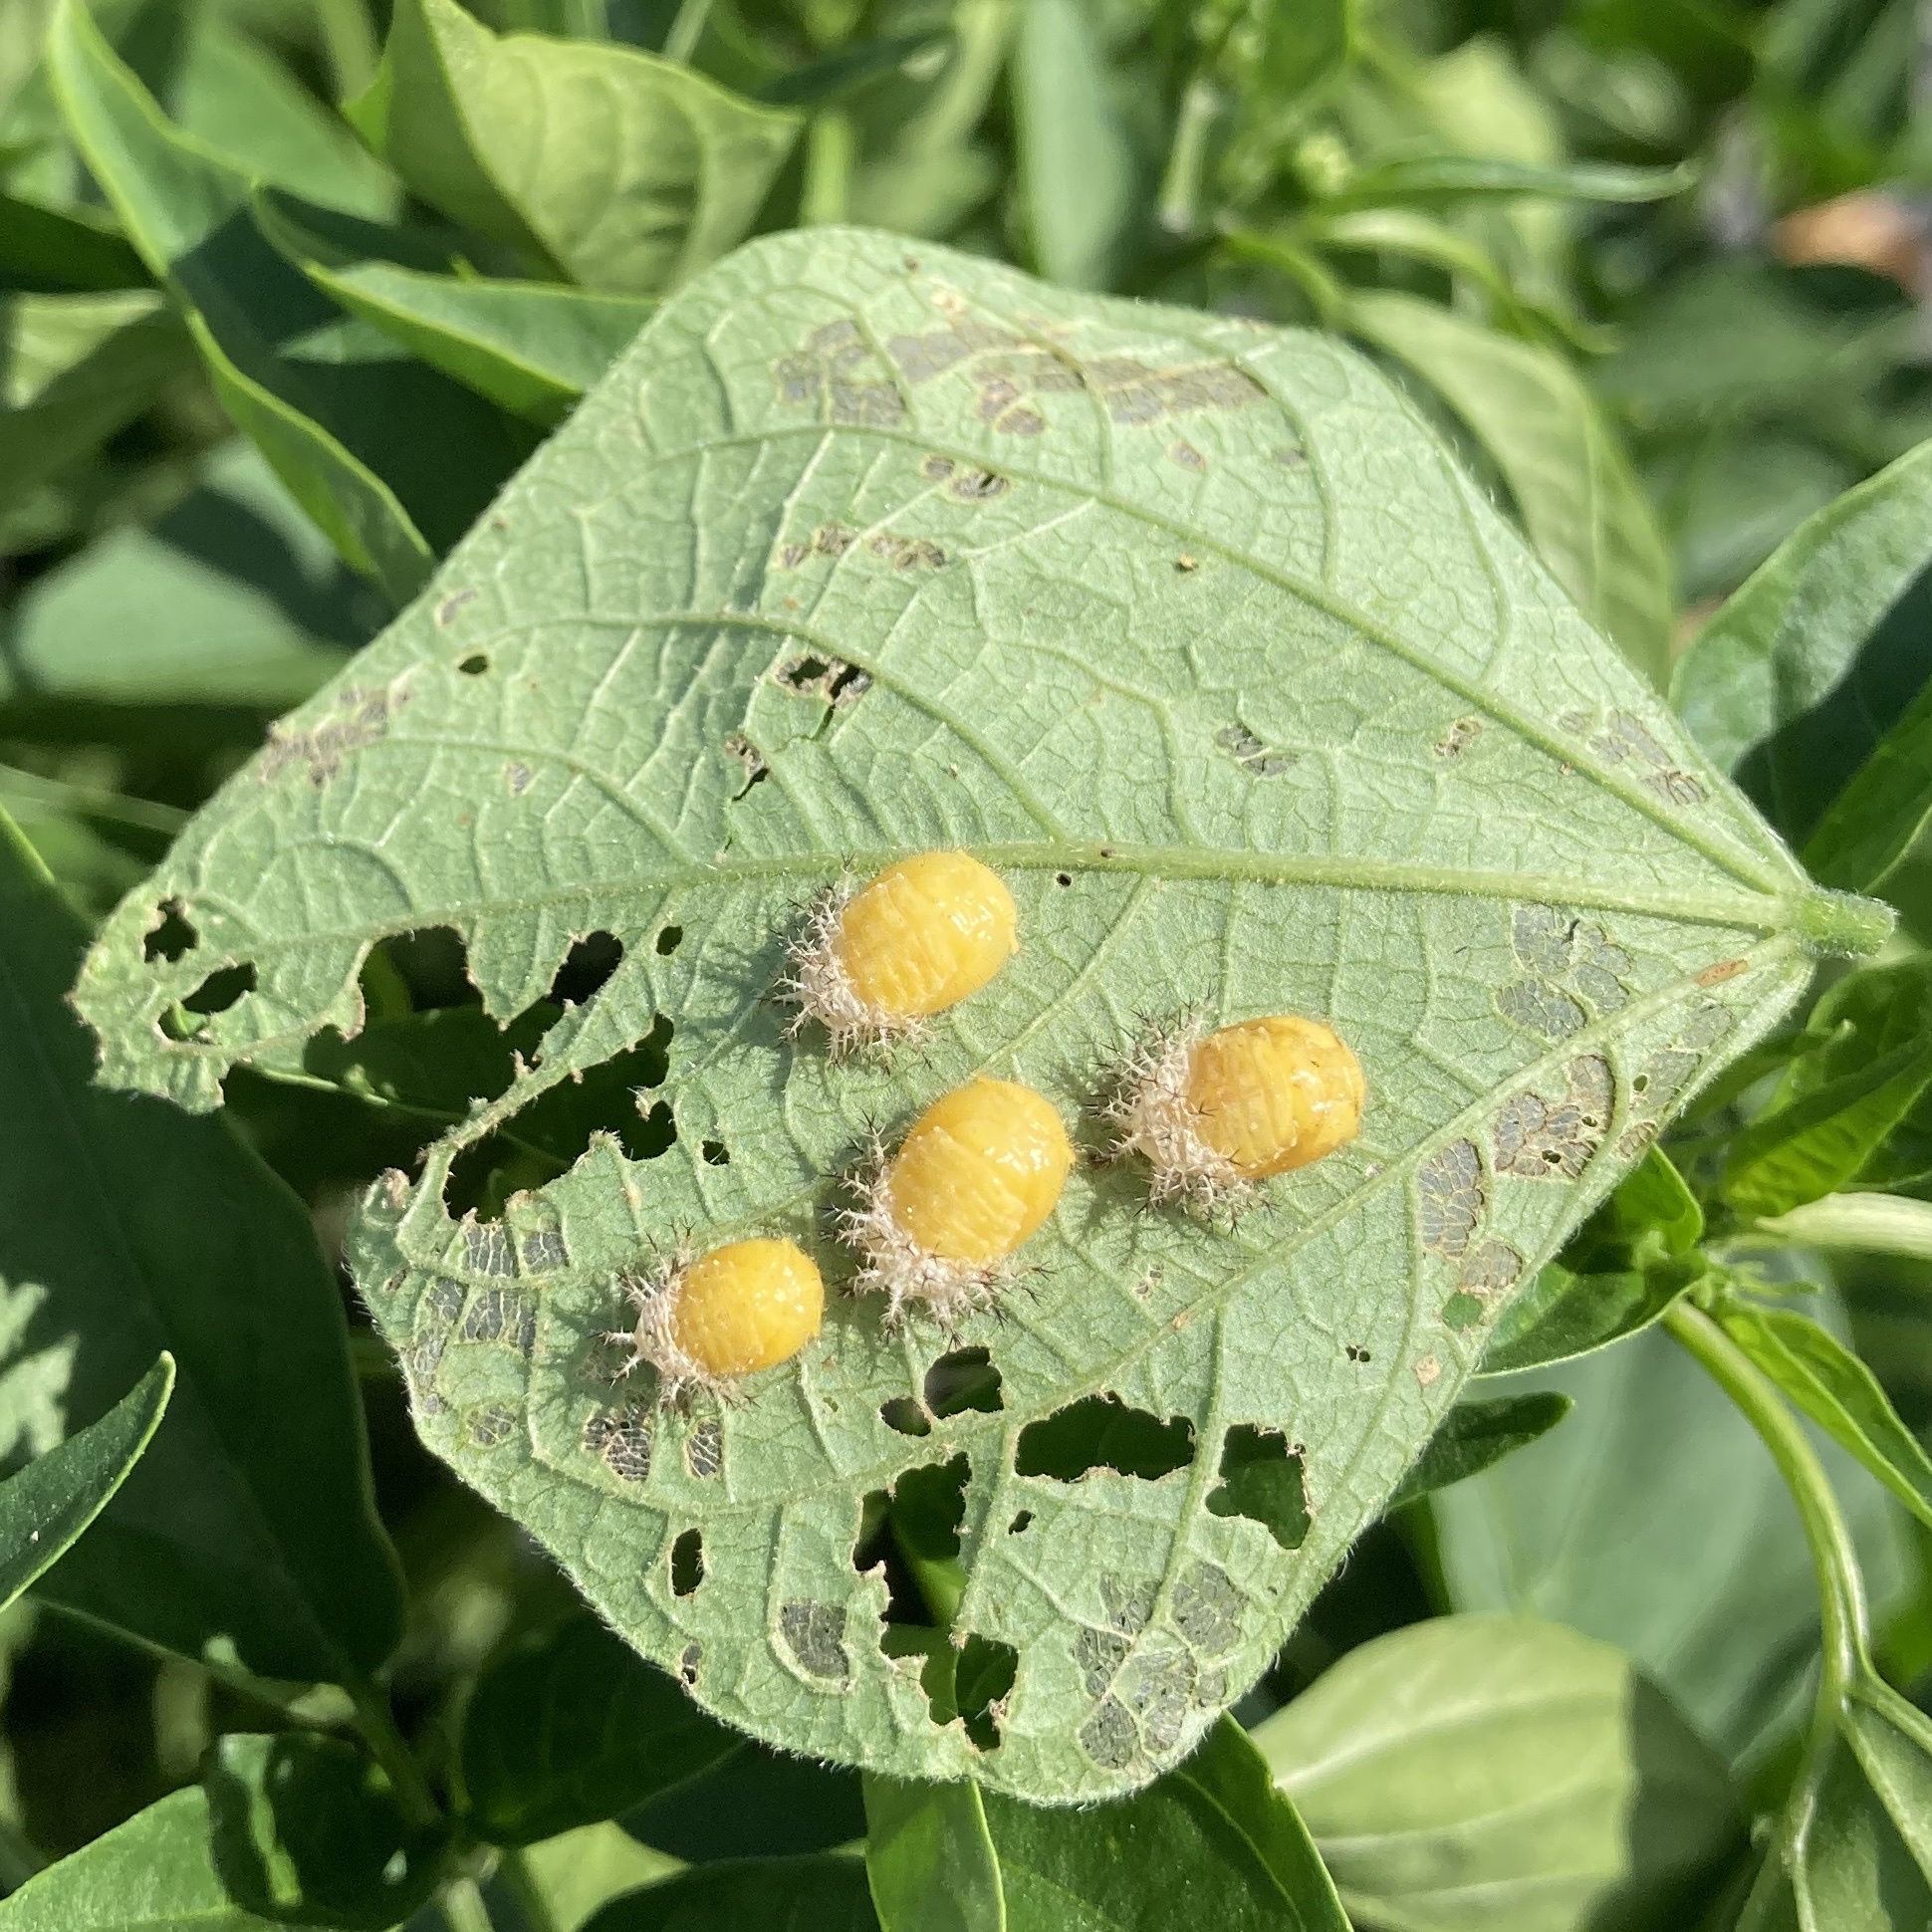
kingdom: Animalia
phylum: Arthropoda
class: Insecta
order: Coleoptera
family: Coccinellidae
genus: Epilachna
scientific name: Epilachna varivestis
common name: Ladybird beetle
